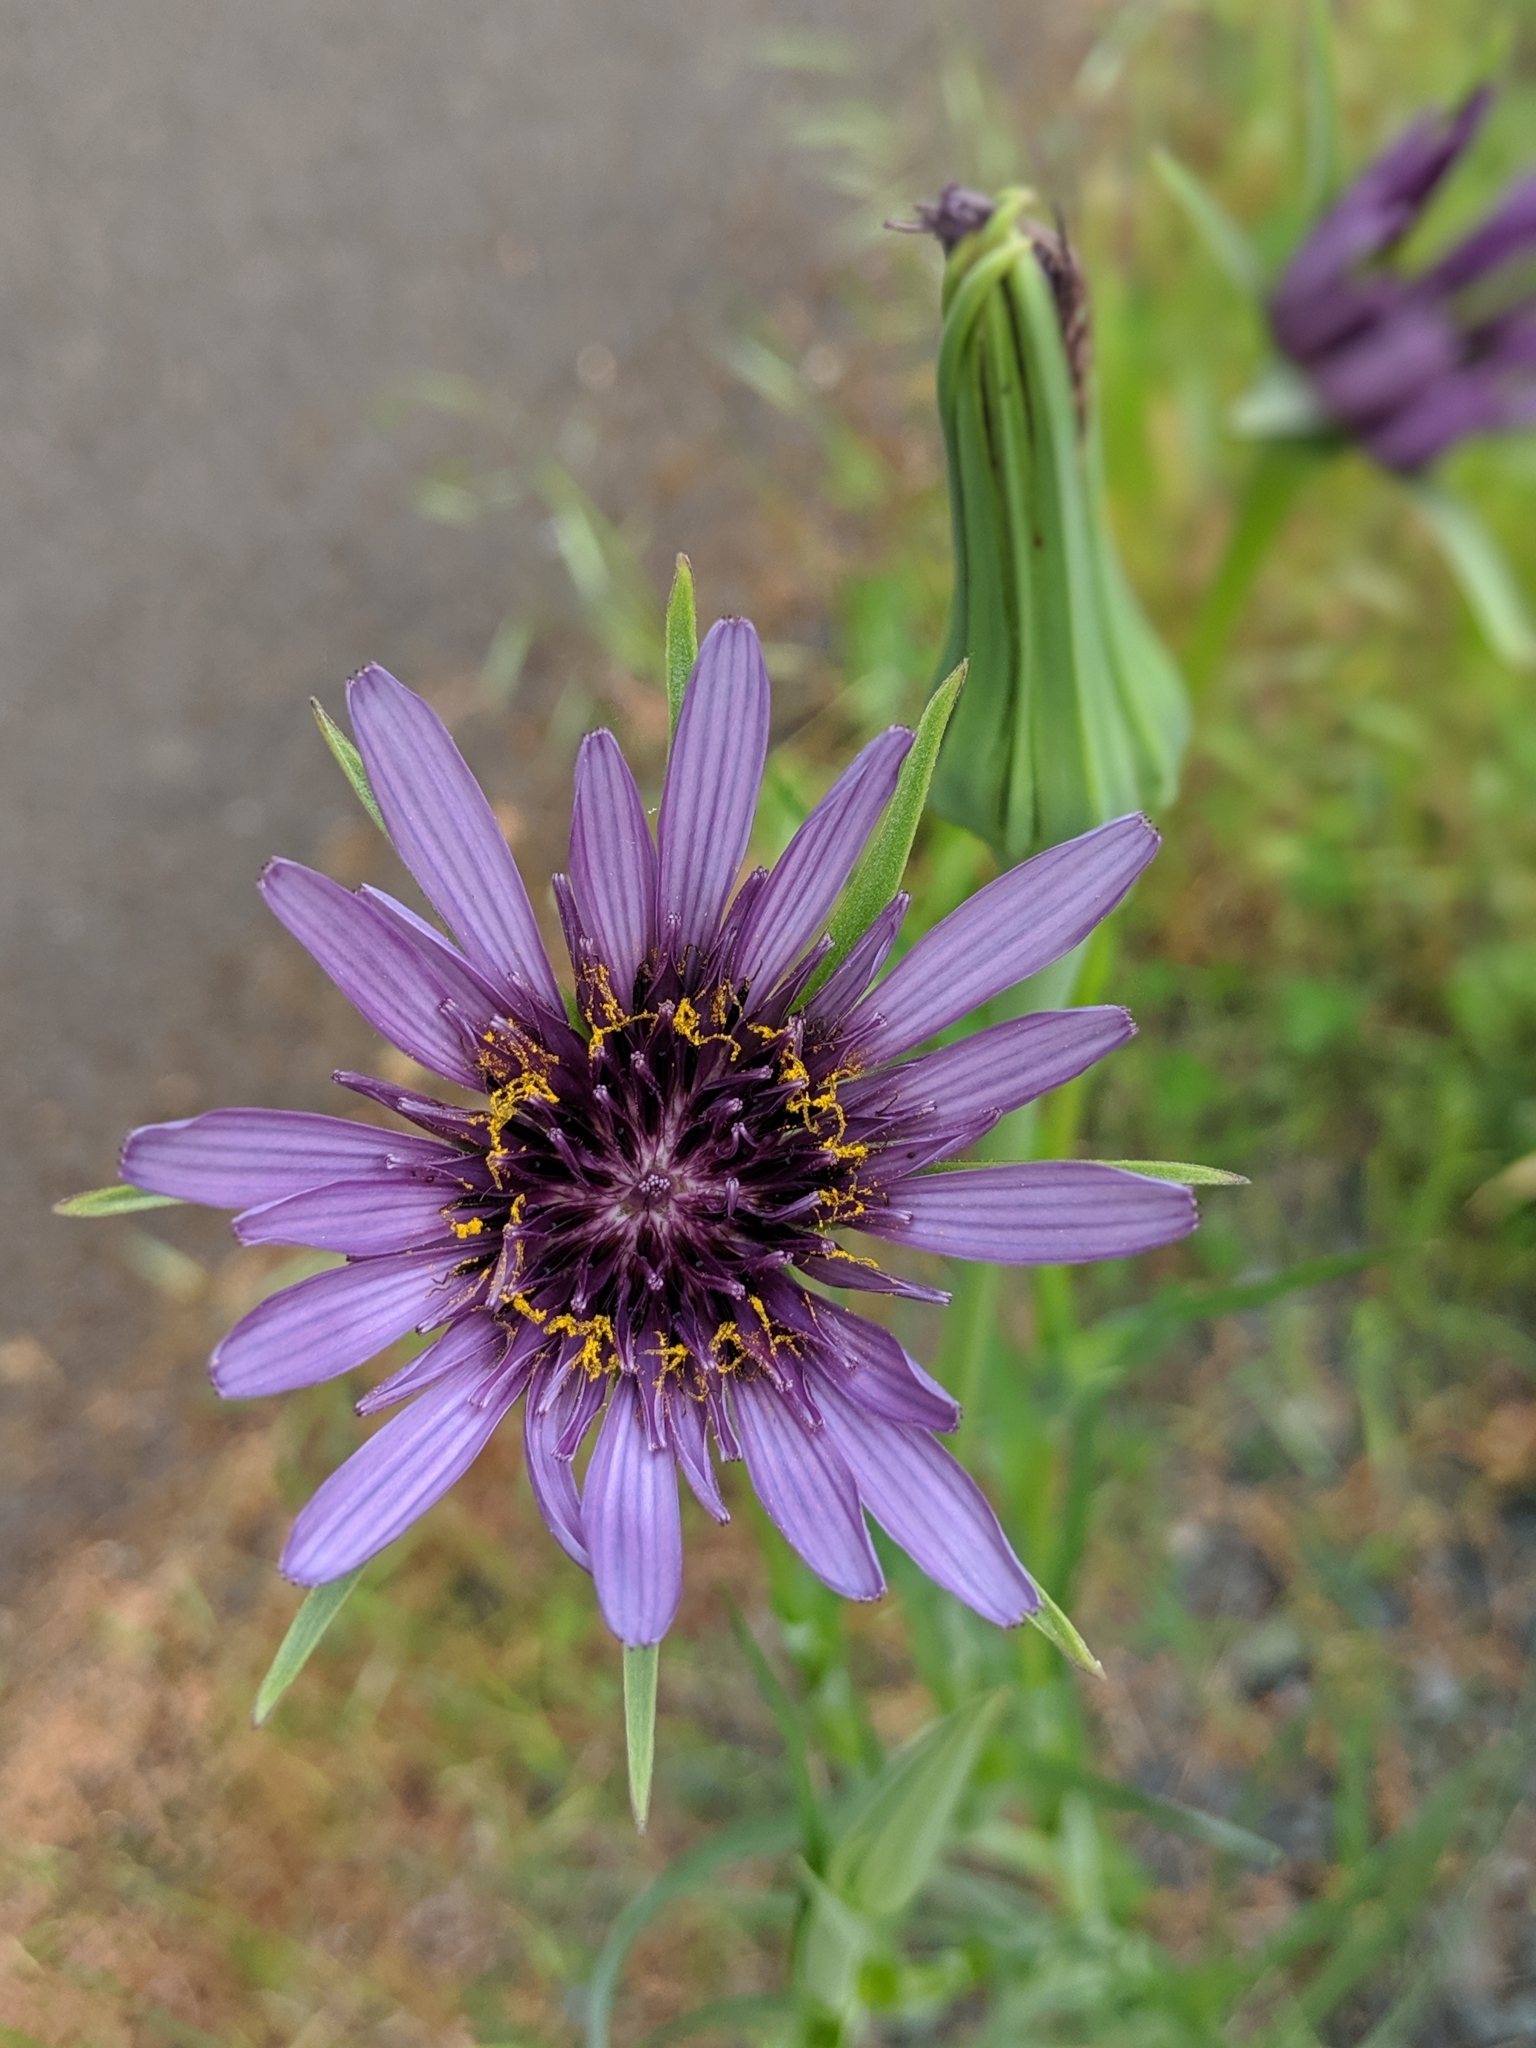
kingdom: Plantae
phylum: Tracheophyta
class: Magnoliopsida
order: Asterales
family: Asteraceae
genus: Tragopogon
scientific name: Tragopogon porrifolius
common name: Salsify
